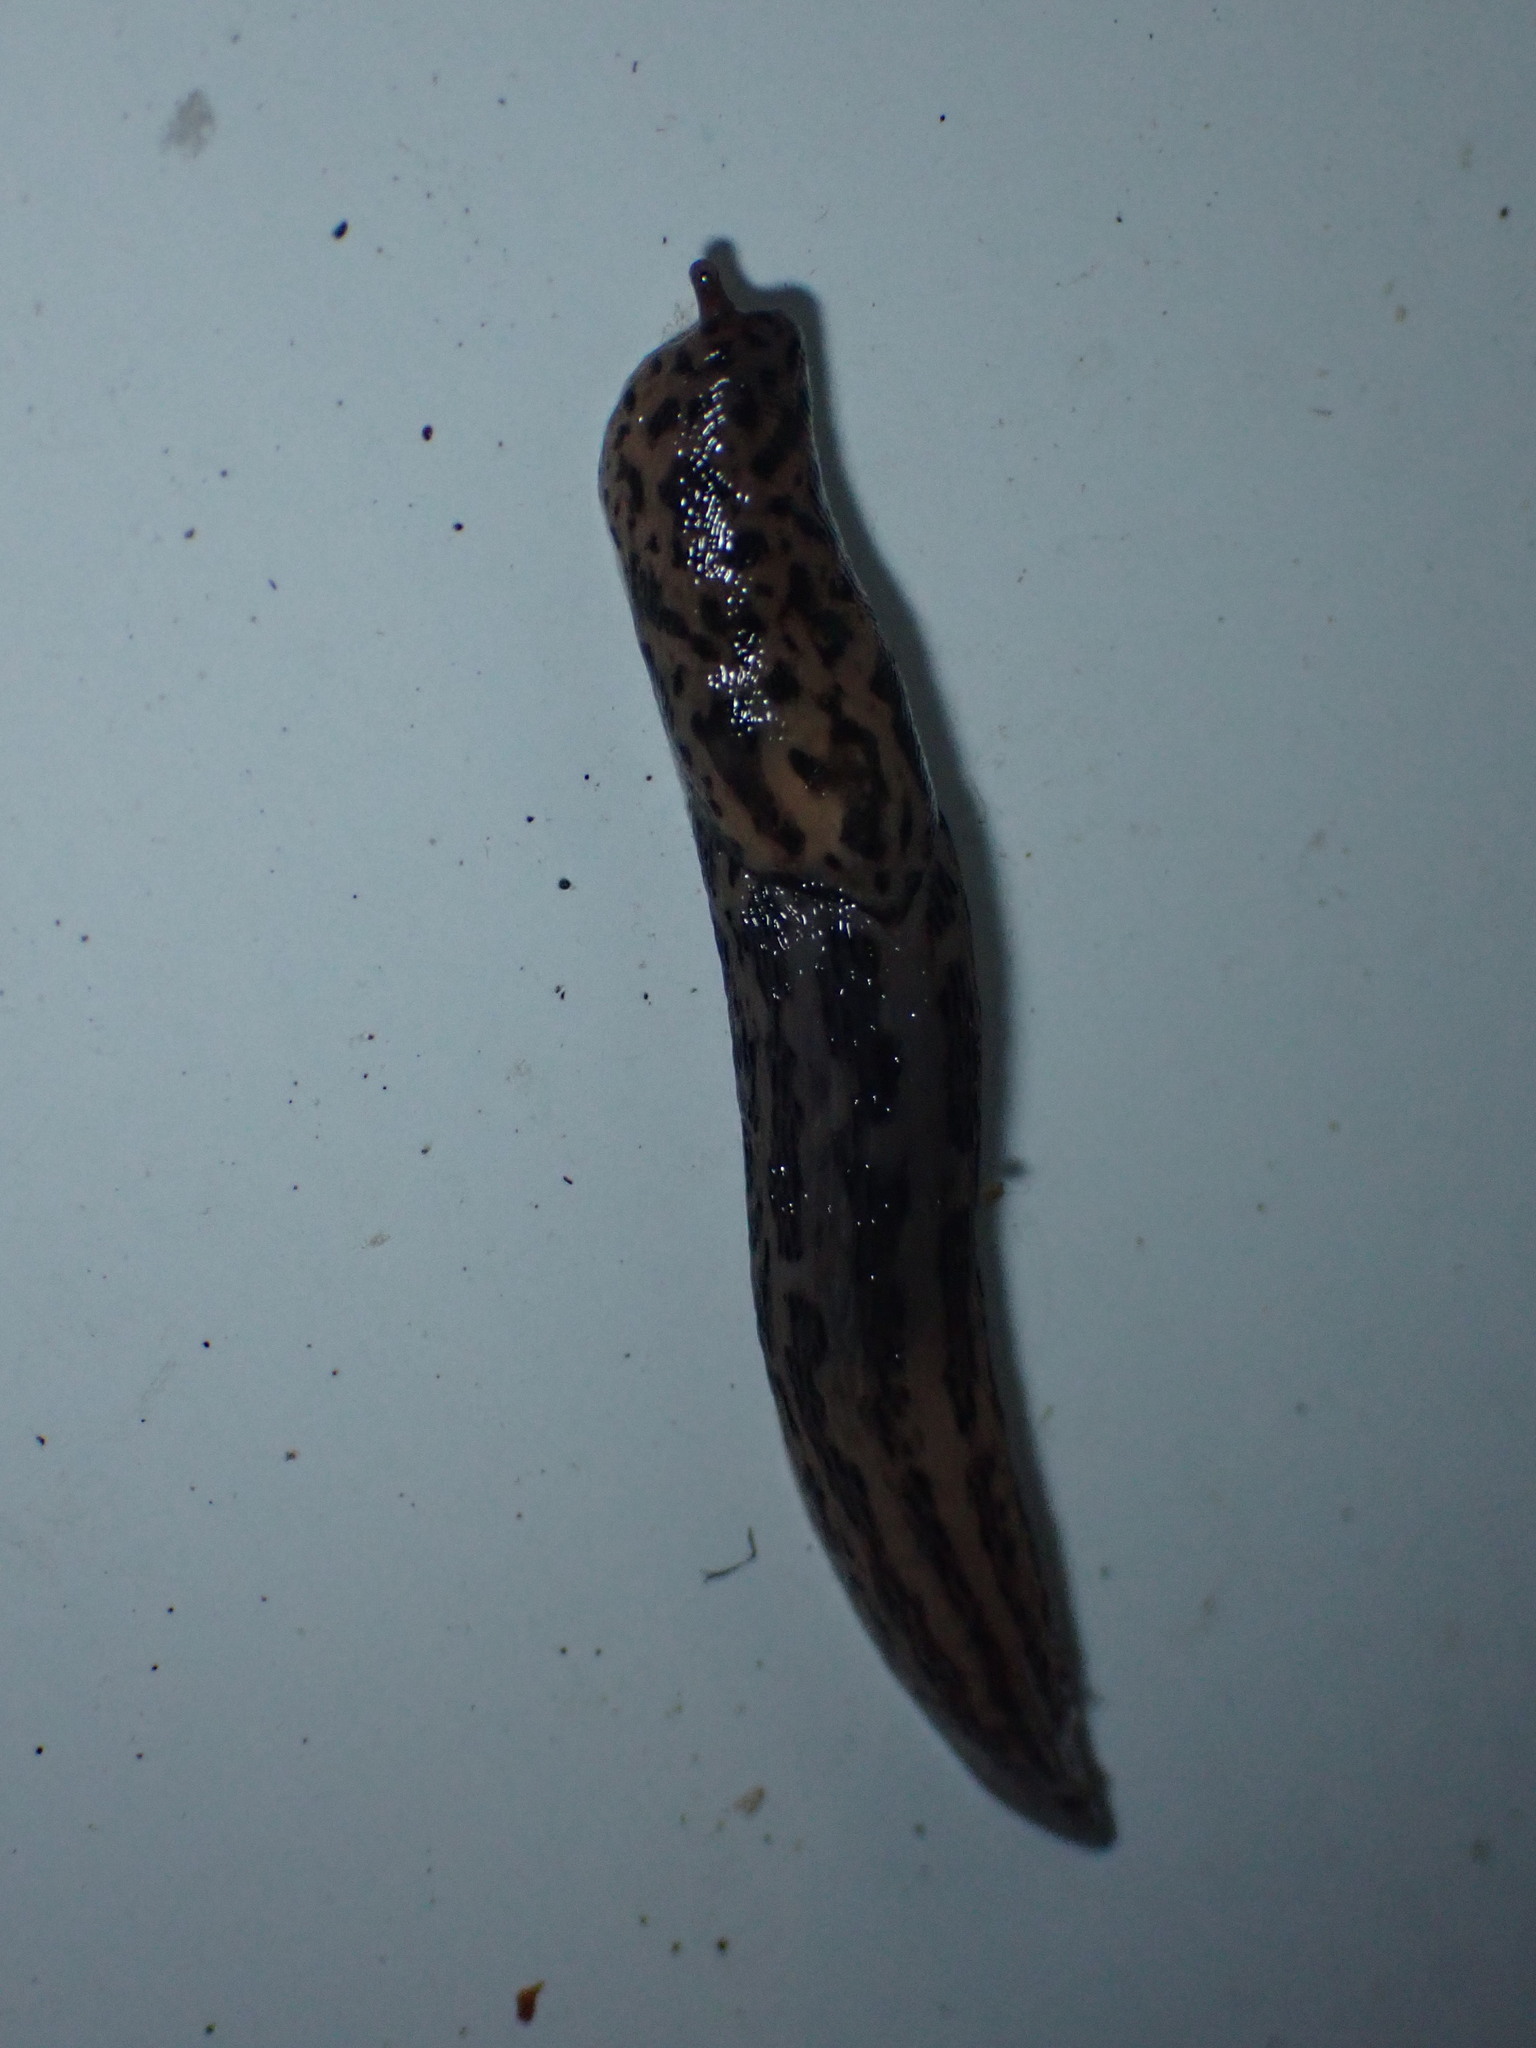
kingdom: Animalia
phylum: Mollusca
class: Gastropoda
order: Stylommatophora
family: Limacidae
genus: Limax
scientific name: Limax maximus
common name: Great grey slug
